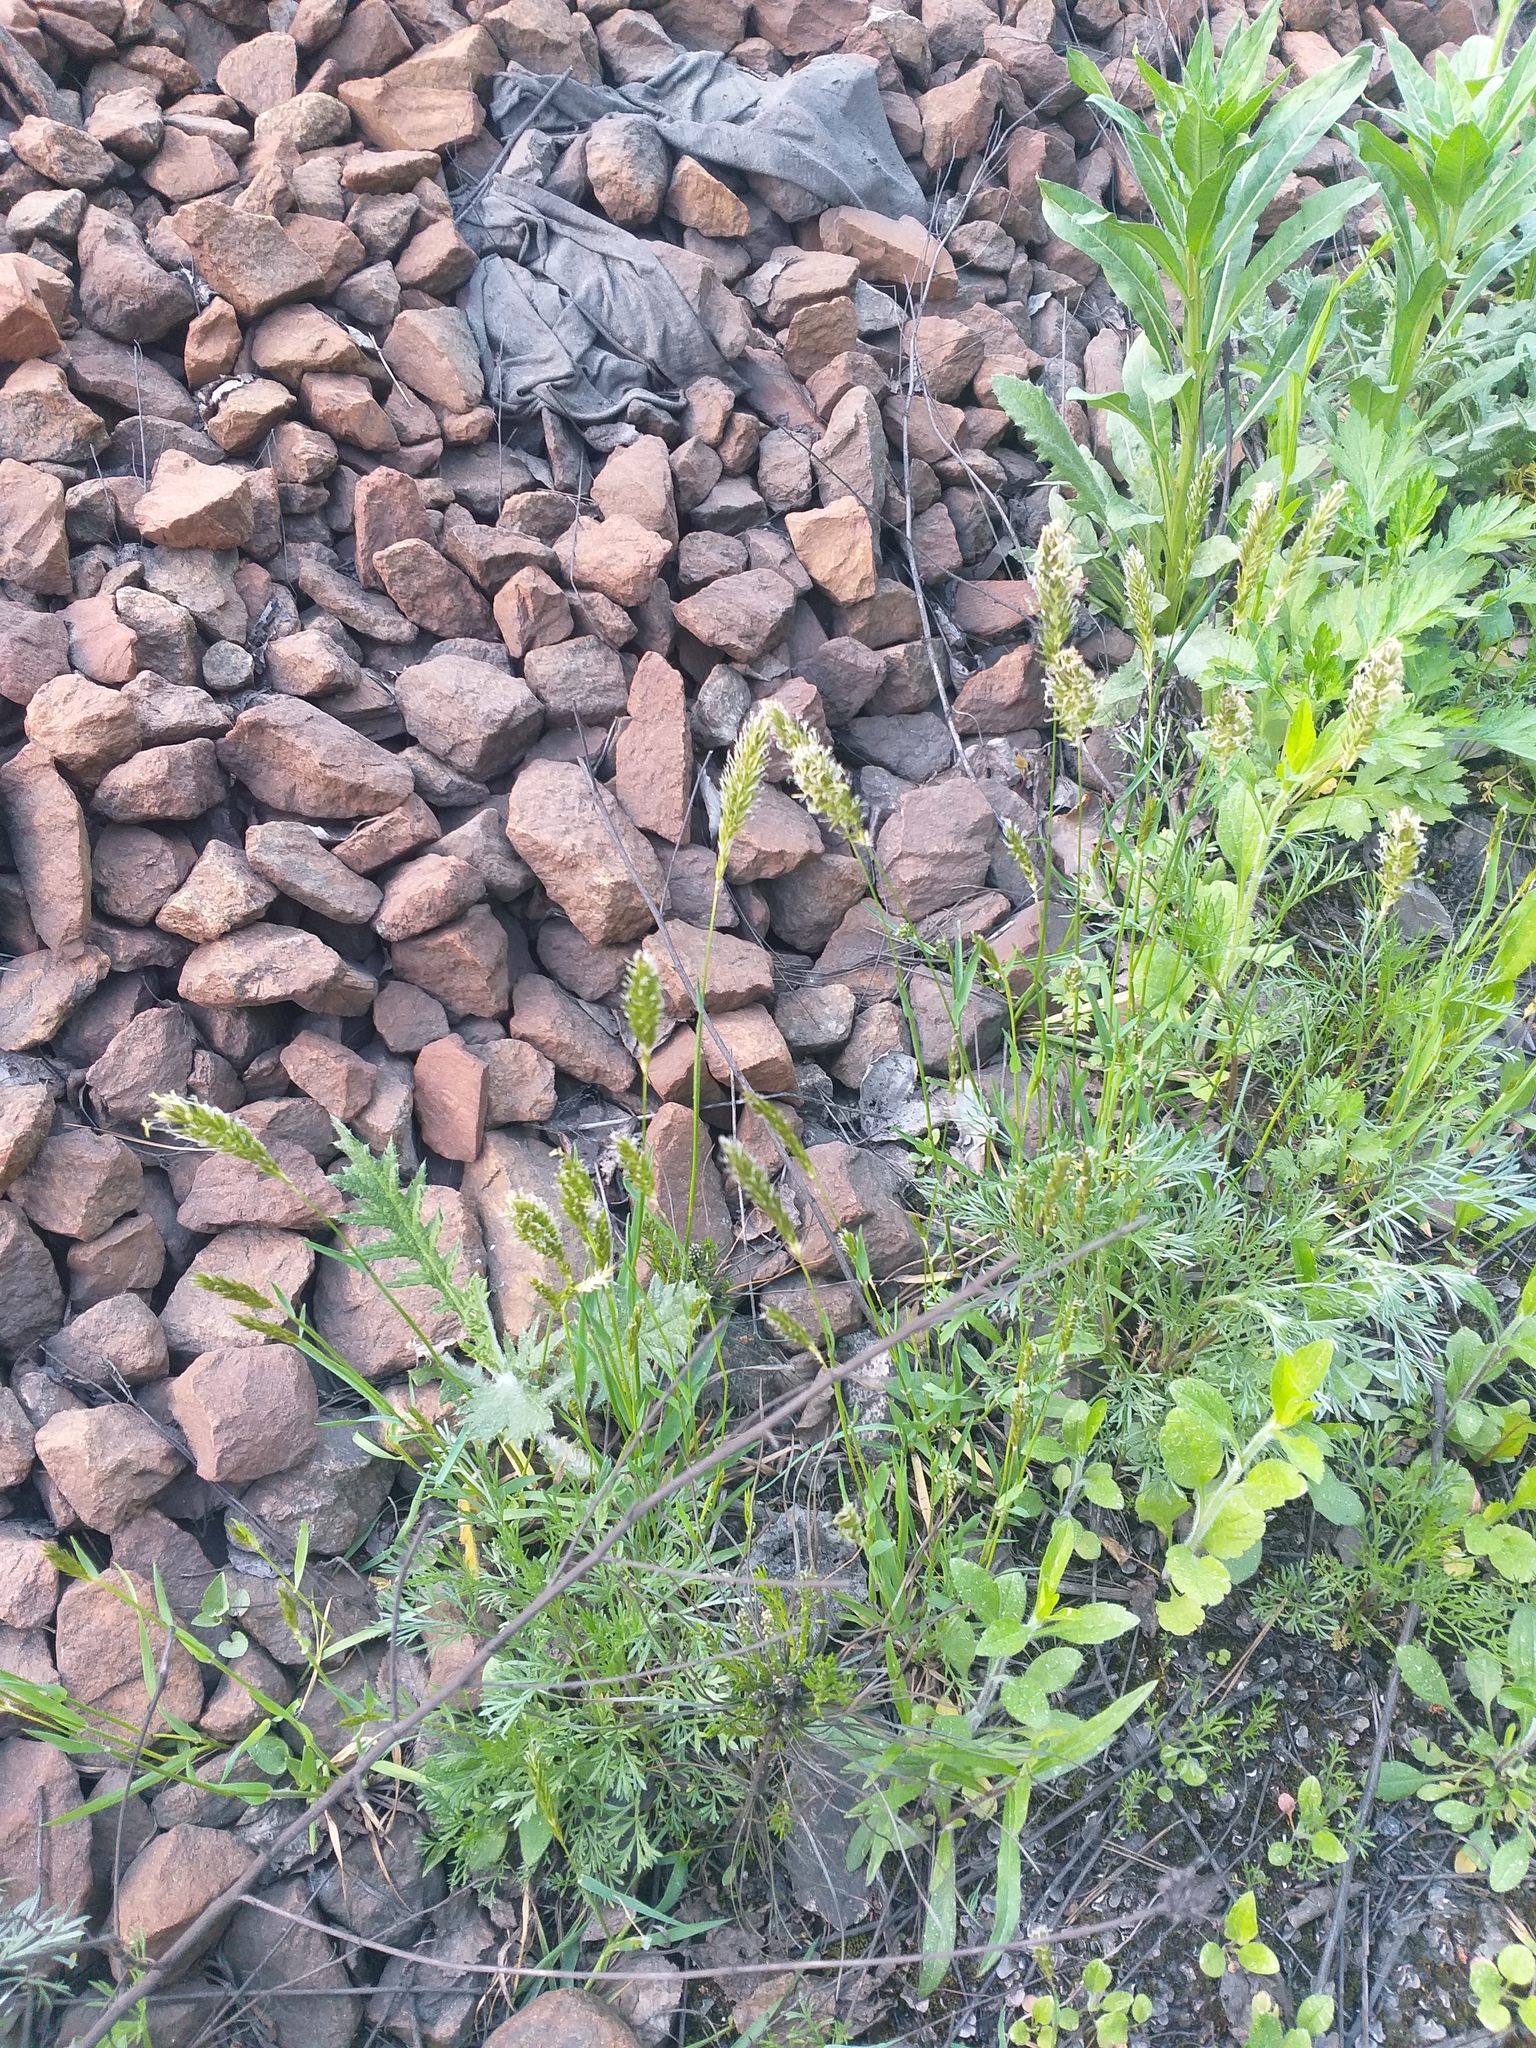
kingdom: Plantae
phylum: Tracheophyta
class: Liliopsida
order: Poales
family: Poaceae
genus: Anthoxanthum
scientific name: Anthoxanthum odoratum
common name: Sweet vernalgrass
